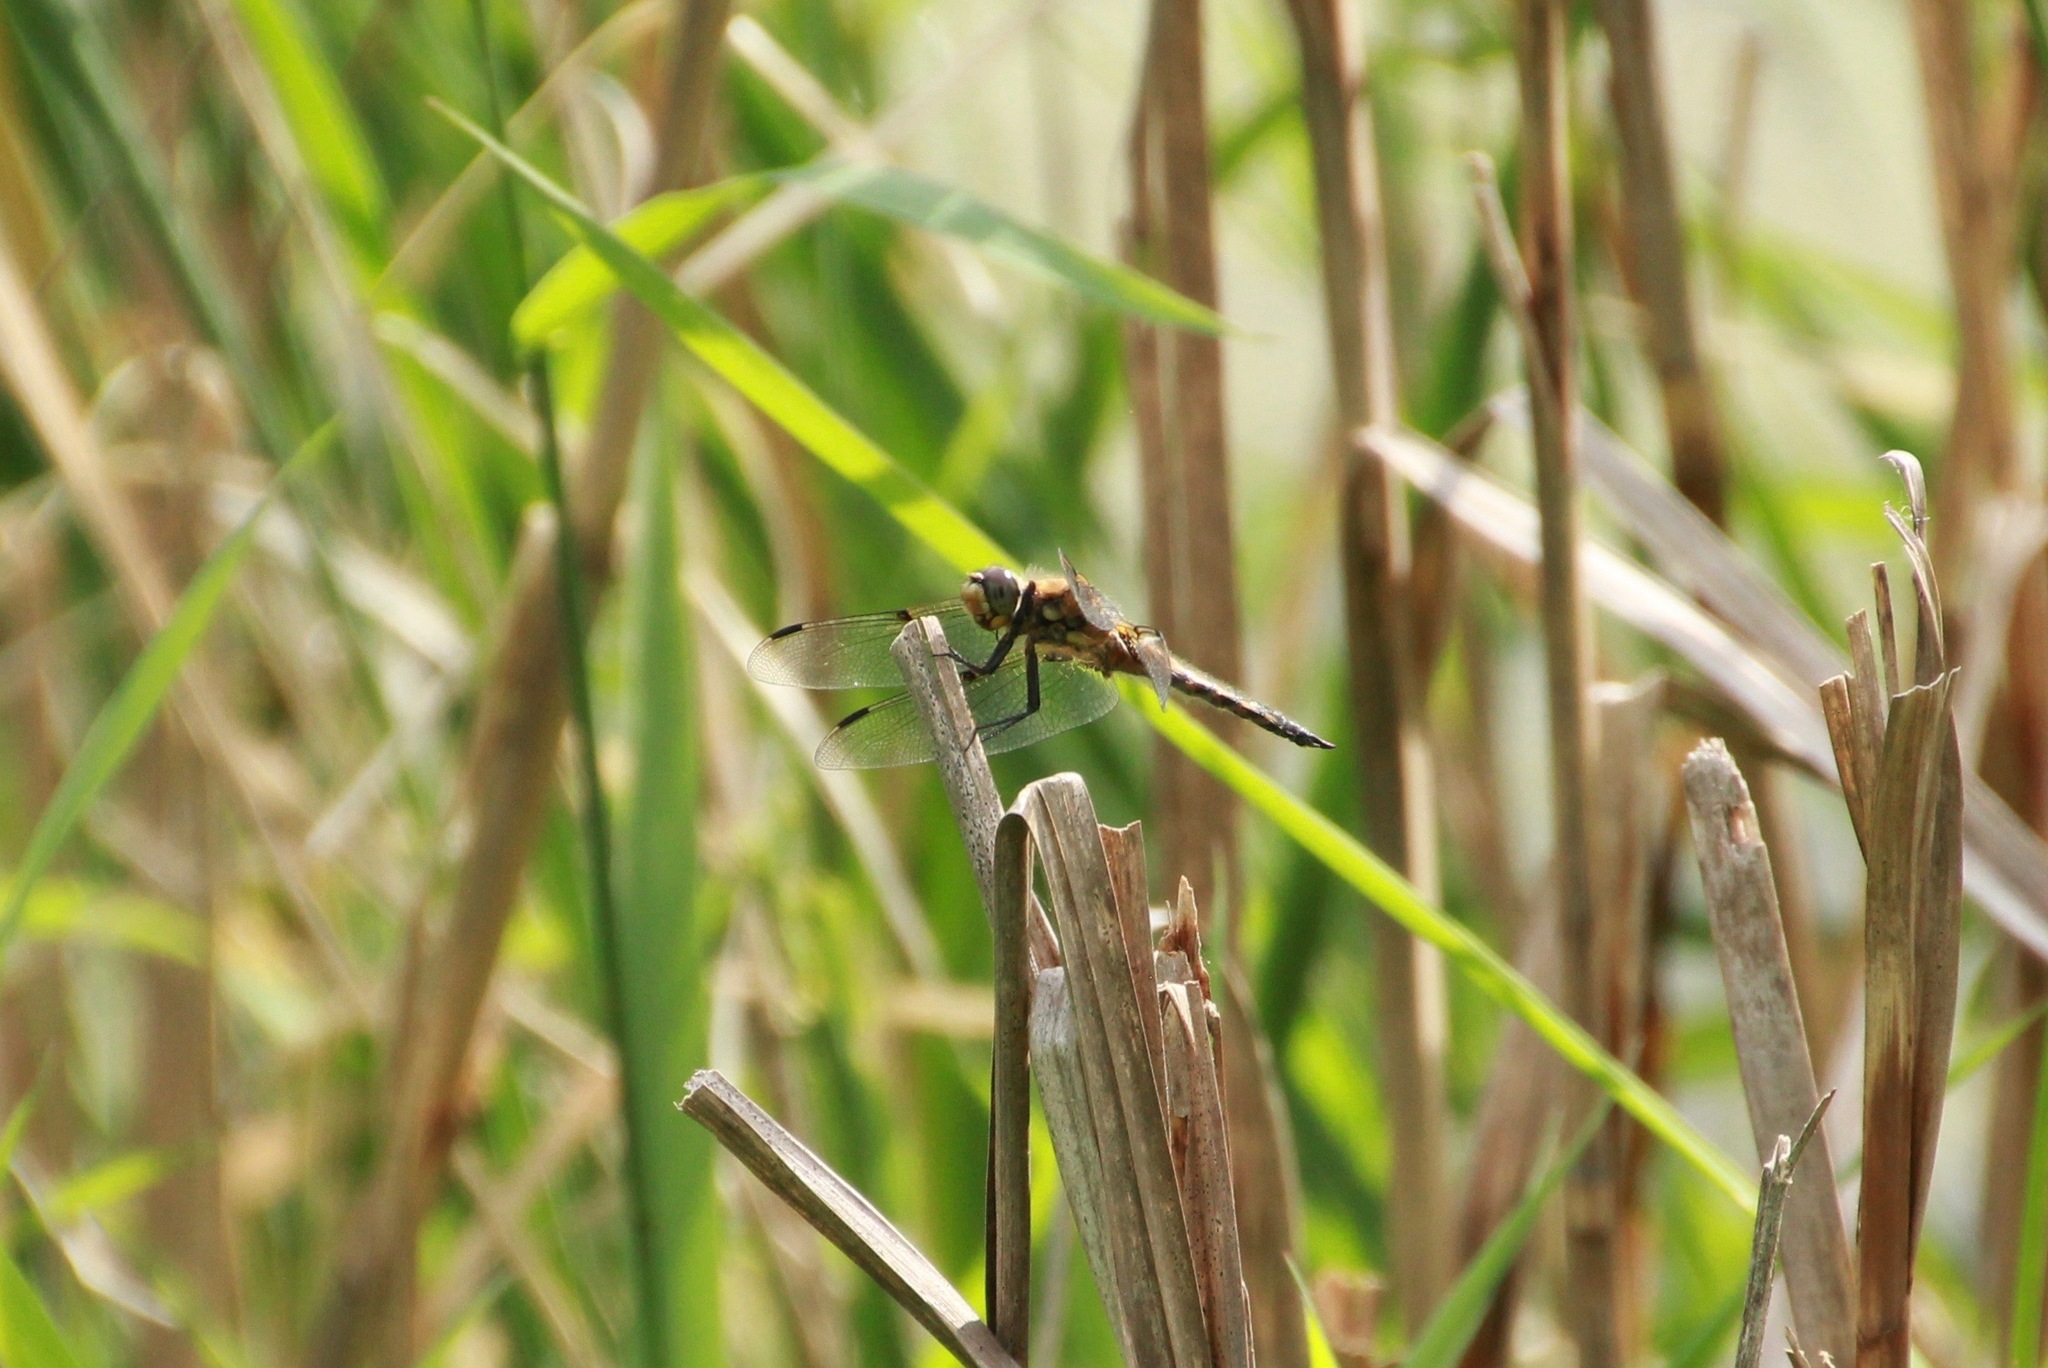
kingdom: Animalia
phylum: Arthropoda
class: Insecta
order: Odonata
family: Libellulidae
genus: Libellula
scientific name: Libellula quadrimaculata
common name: Four-spotted chaser
